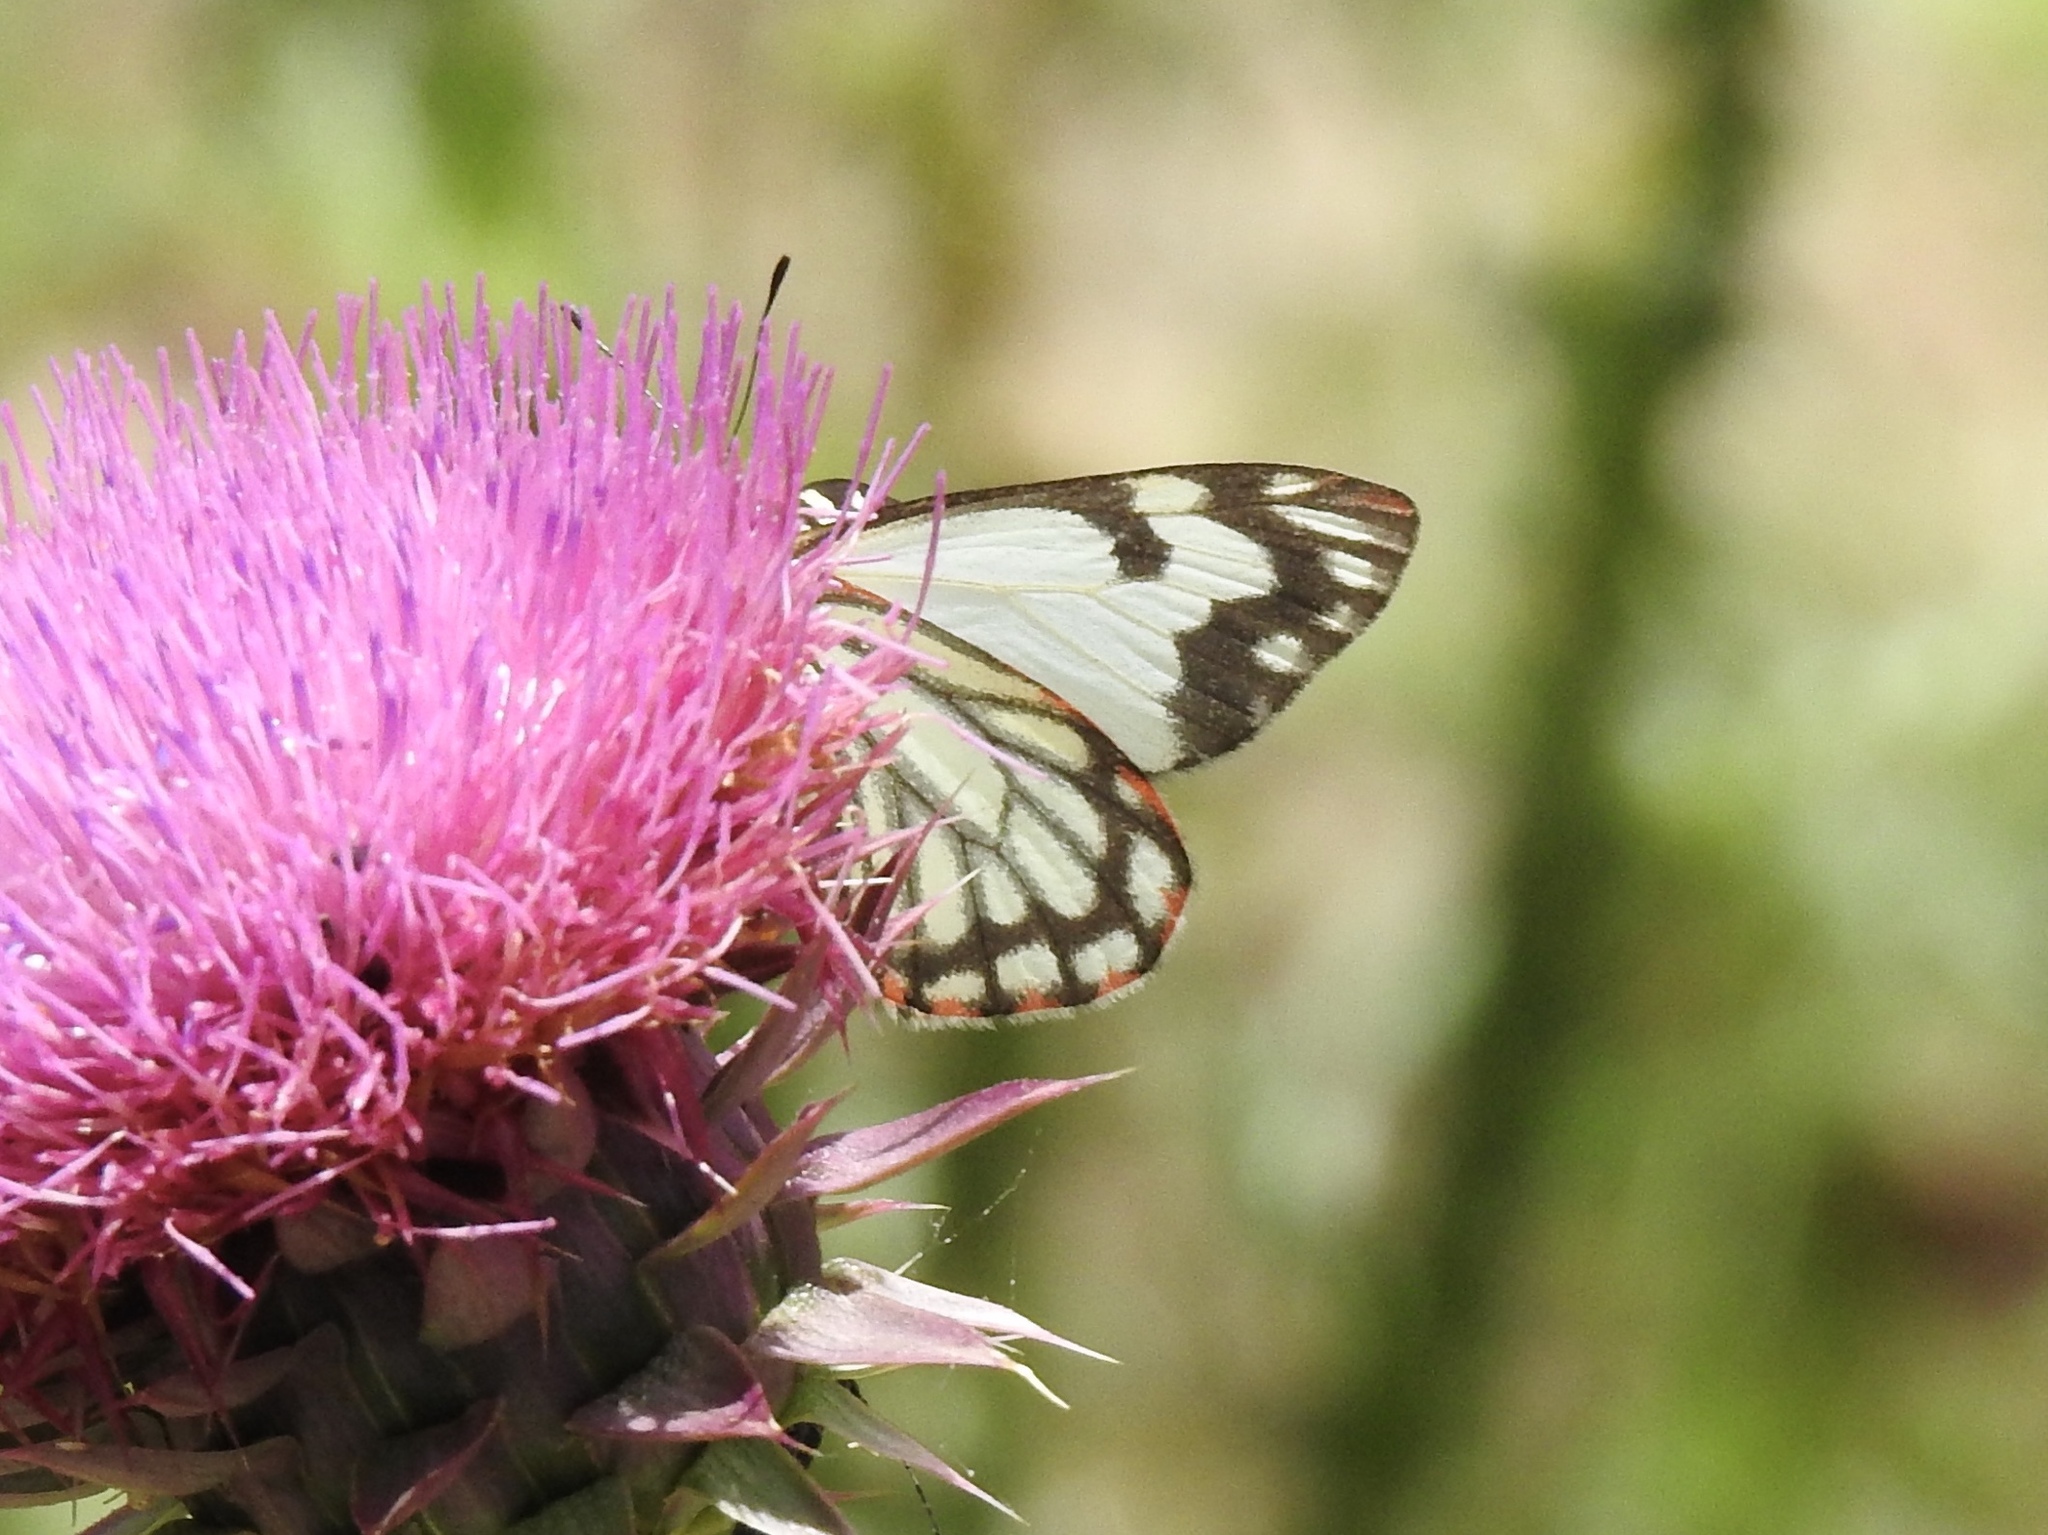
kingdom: Animalia
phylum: Arthropoda
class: Insecta
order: Lepidoptera
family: Pieridae
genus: Neophasia
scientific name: Neophasia menapia
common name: Pine white
